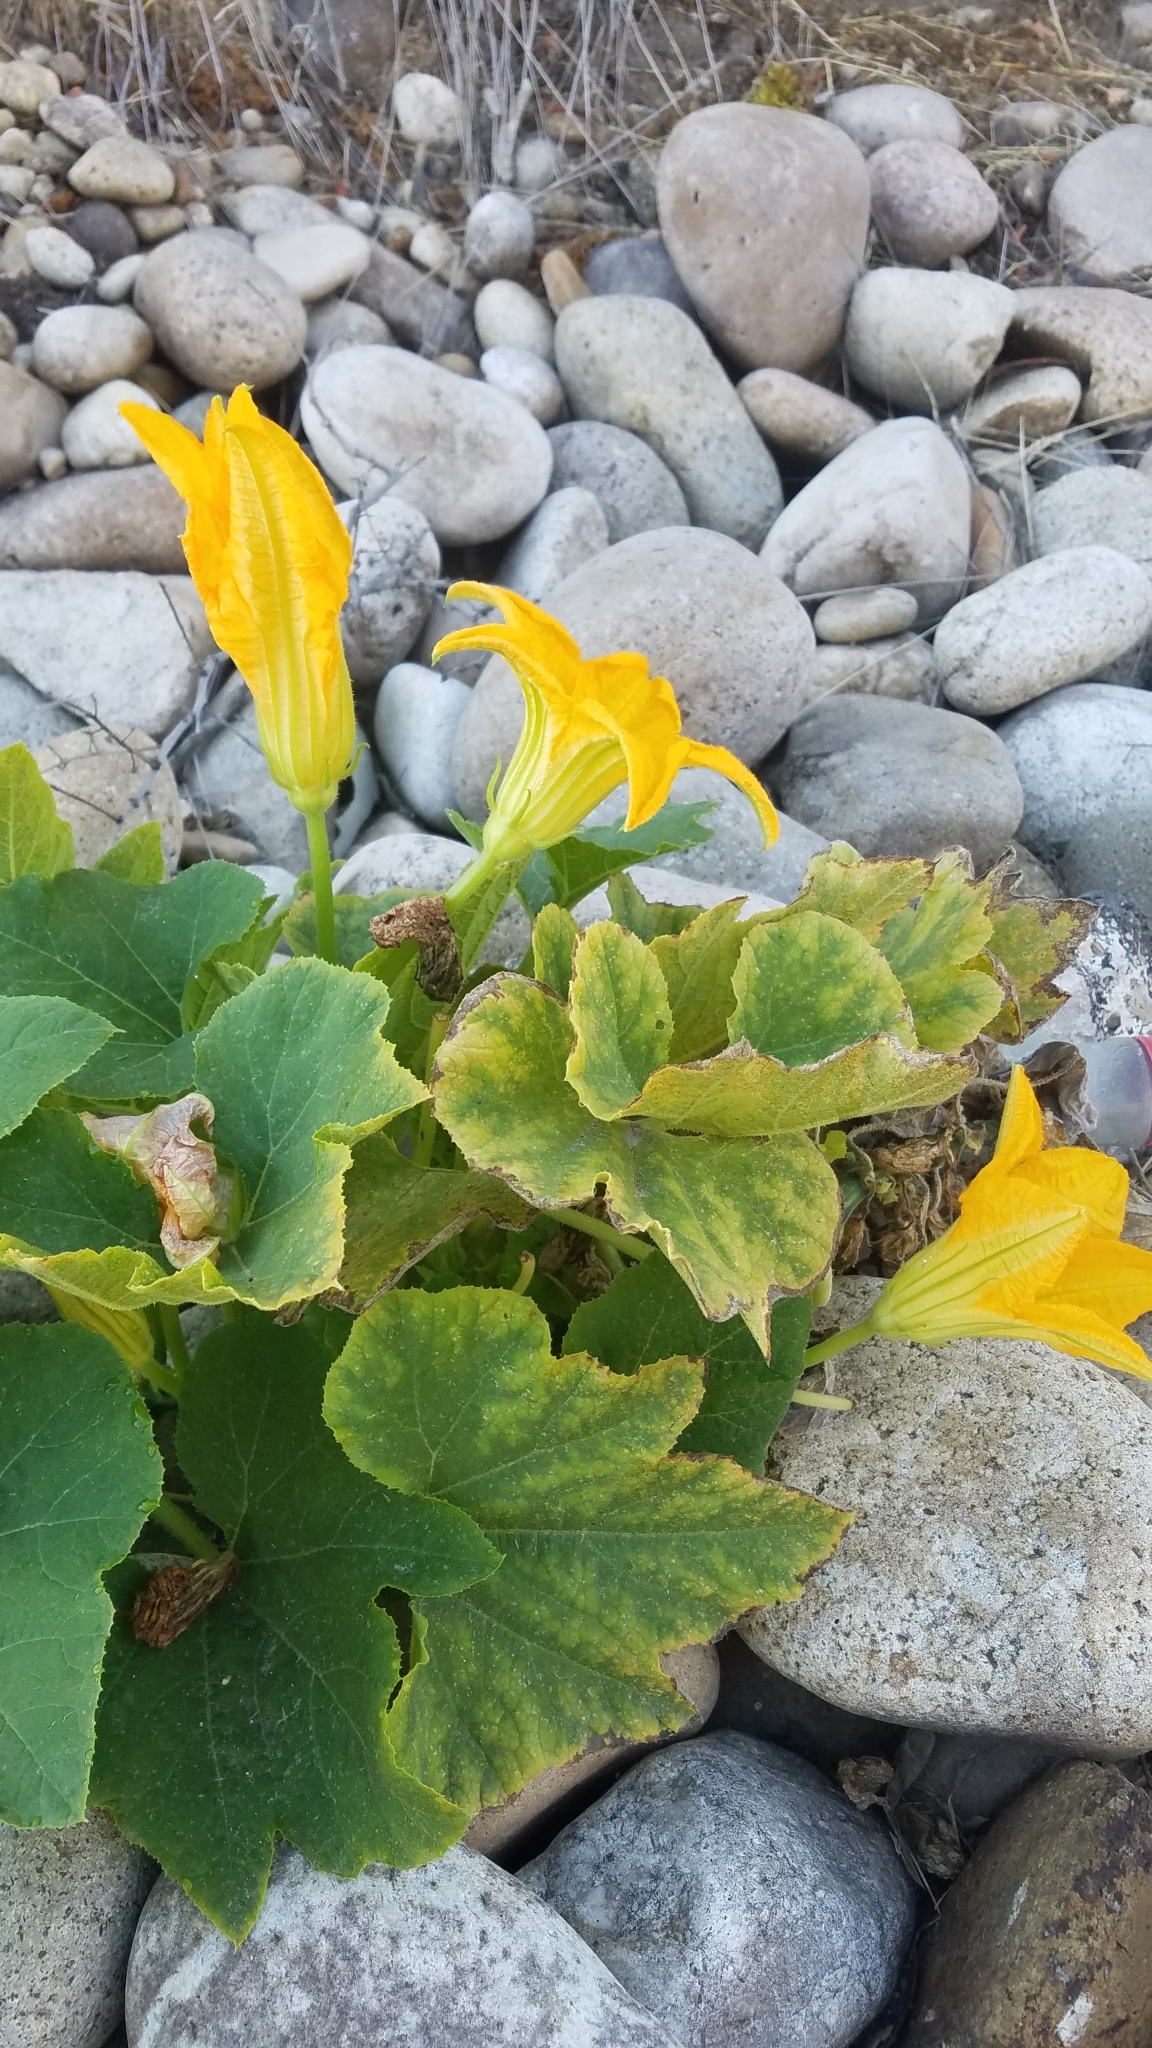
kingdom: Plantae
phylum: Tracheophyta
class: Magnoliopsida
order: Cucurbitales
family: Cucurbitaceae
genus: Cucurbita
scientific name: Cucurbita pepo
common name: Marrow
